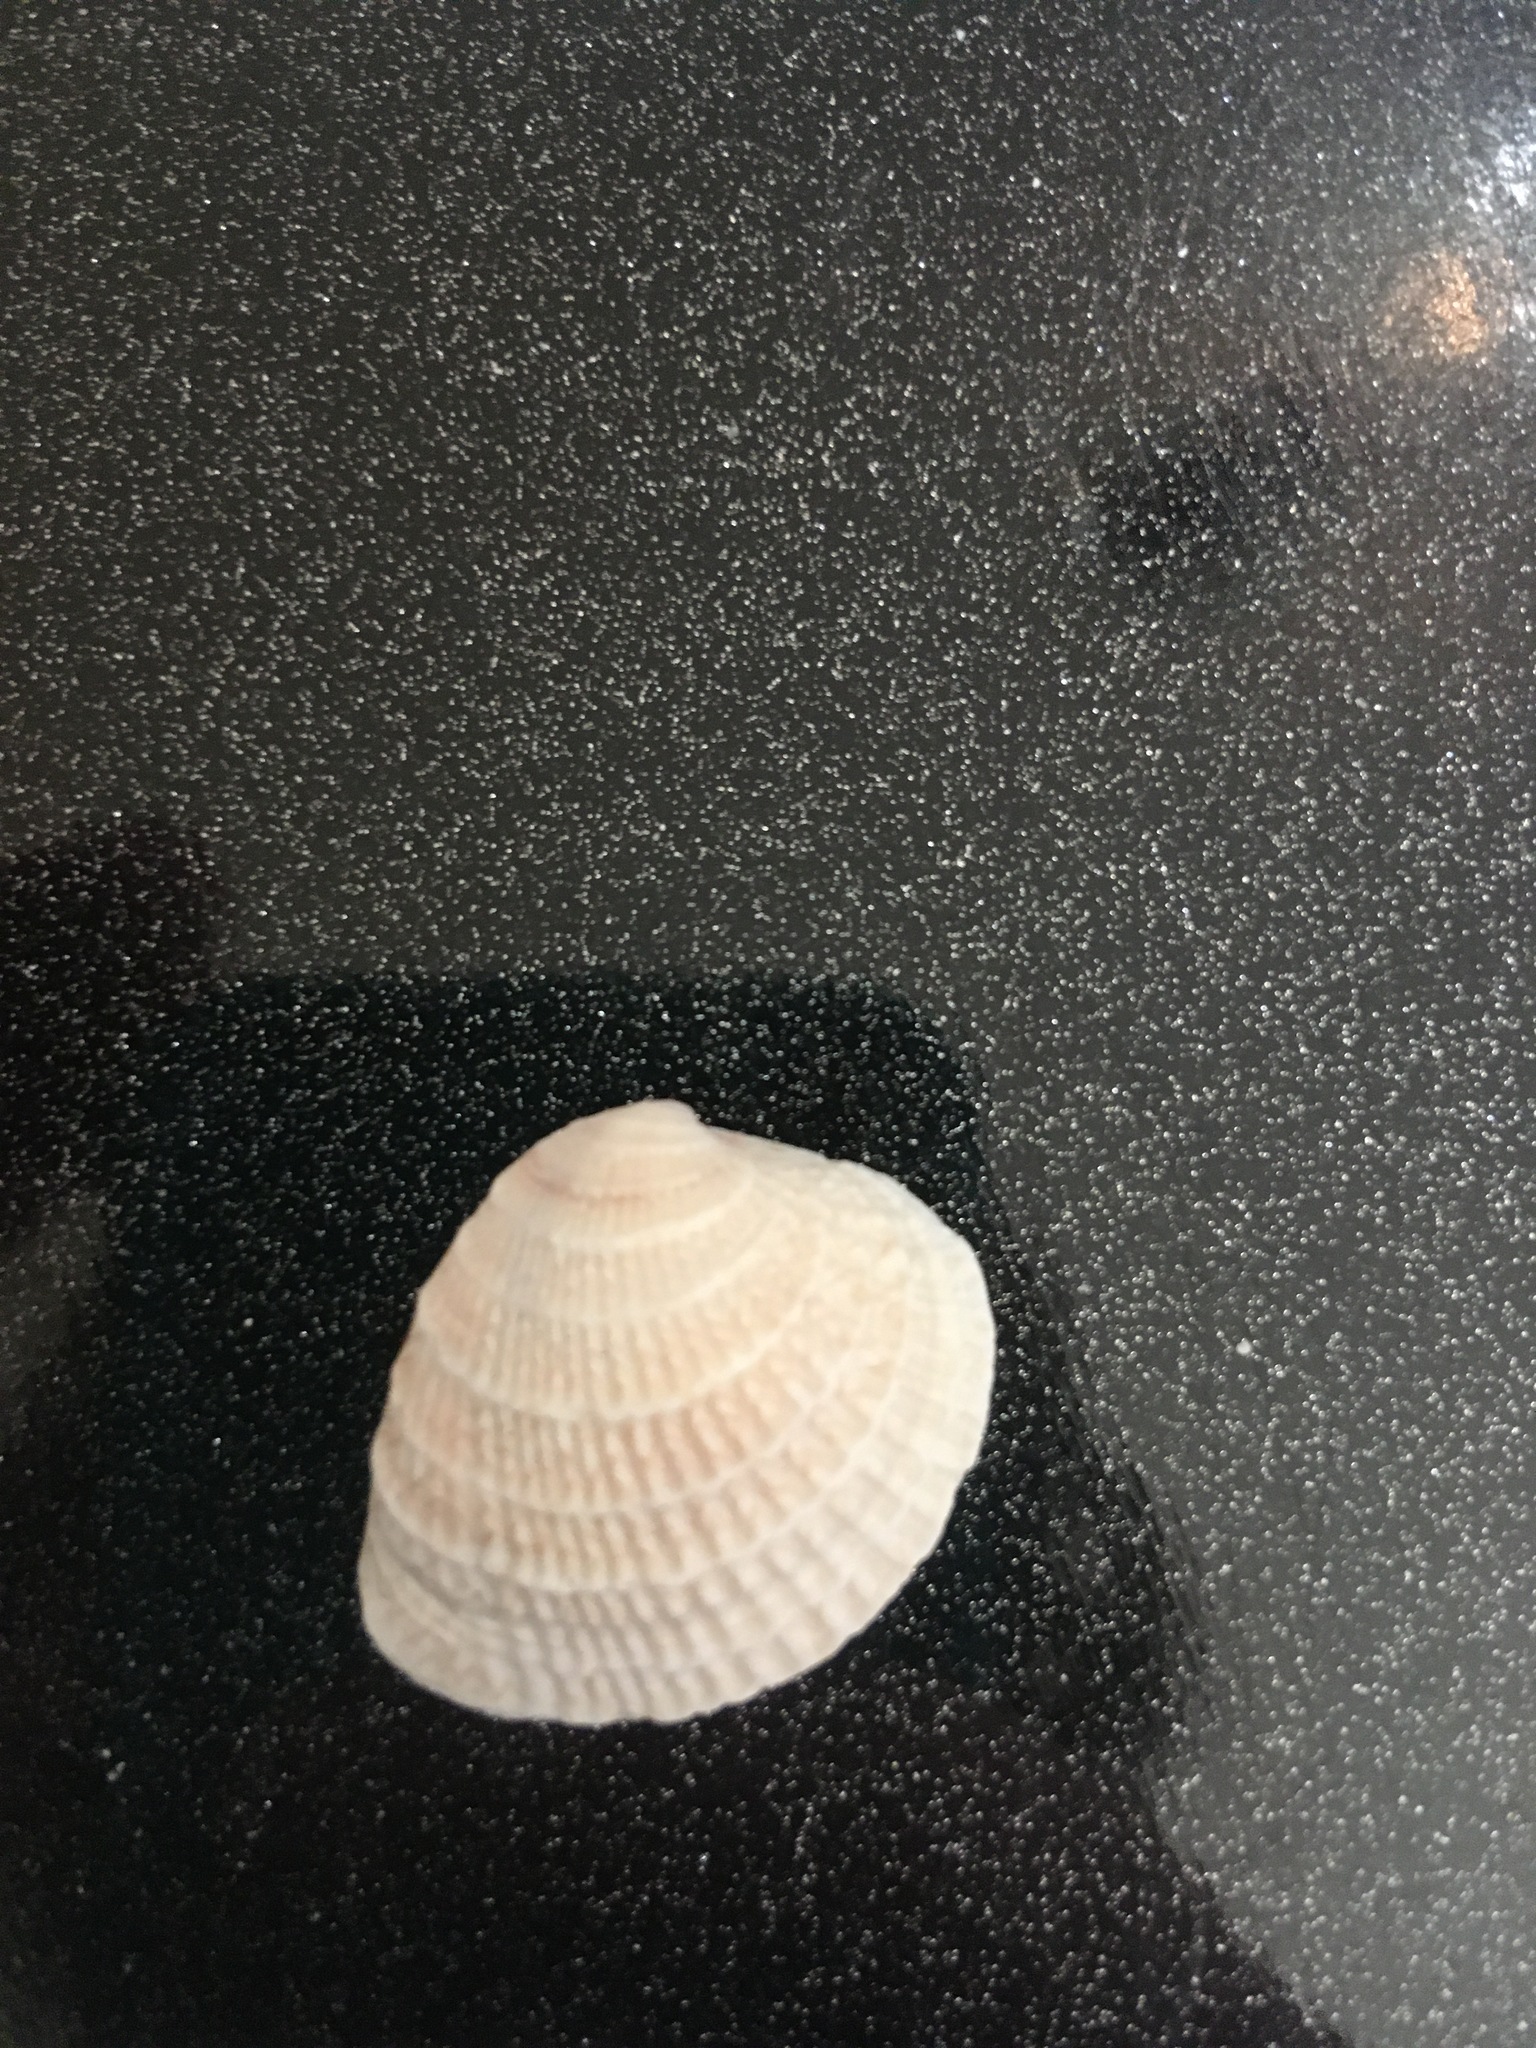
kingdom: Animalia
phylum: Mollusca
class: Bivalvia
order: Venerida
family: Veneridae
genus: Chione
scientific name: Chione elevata
